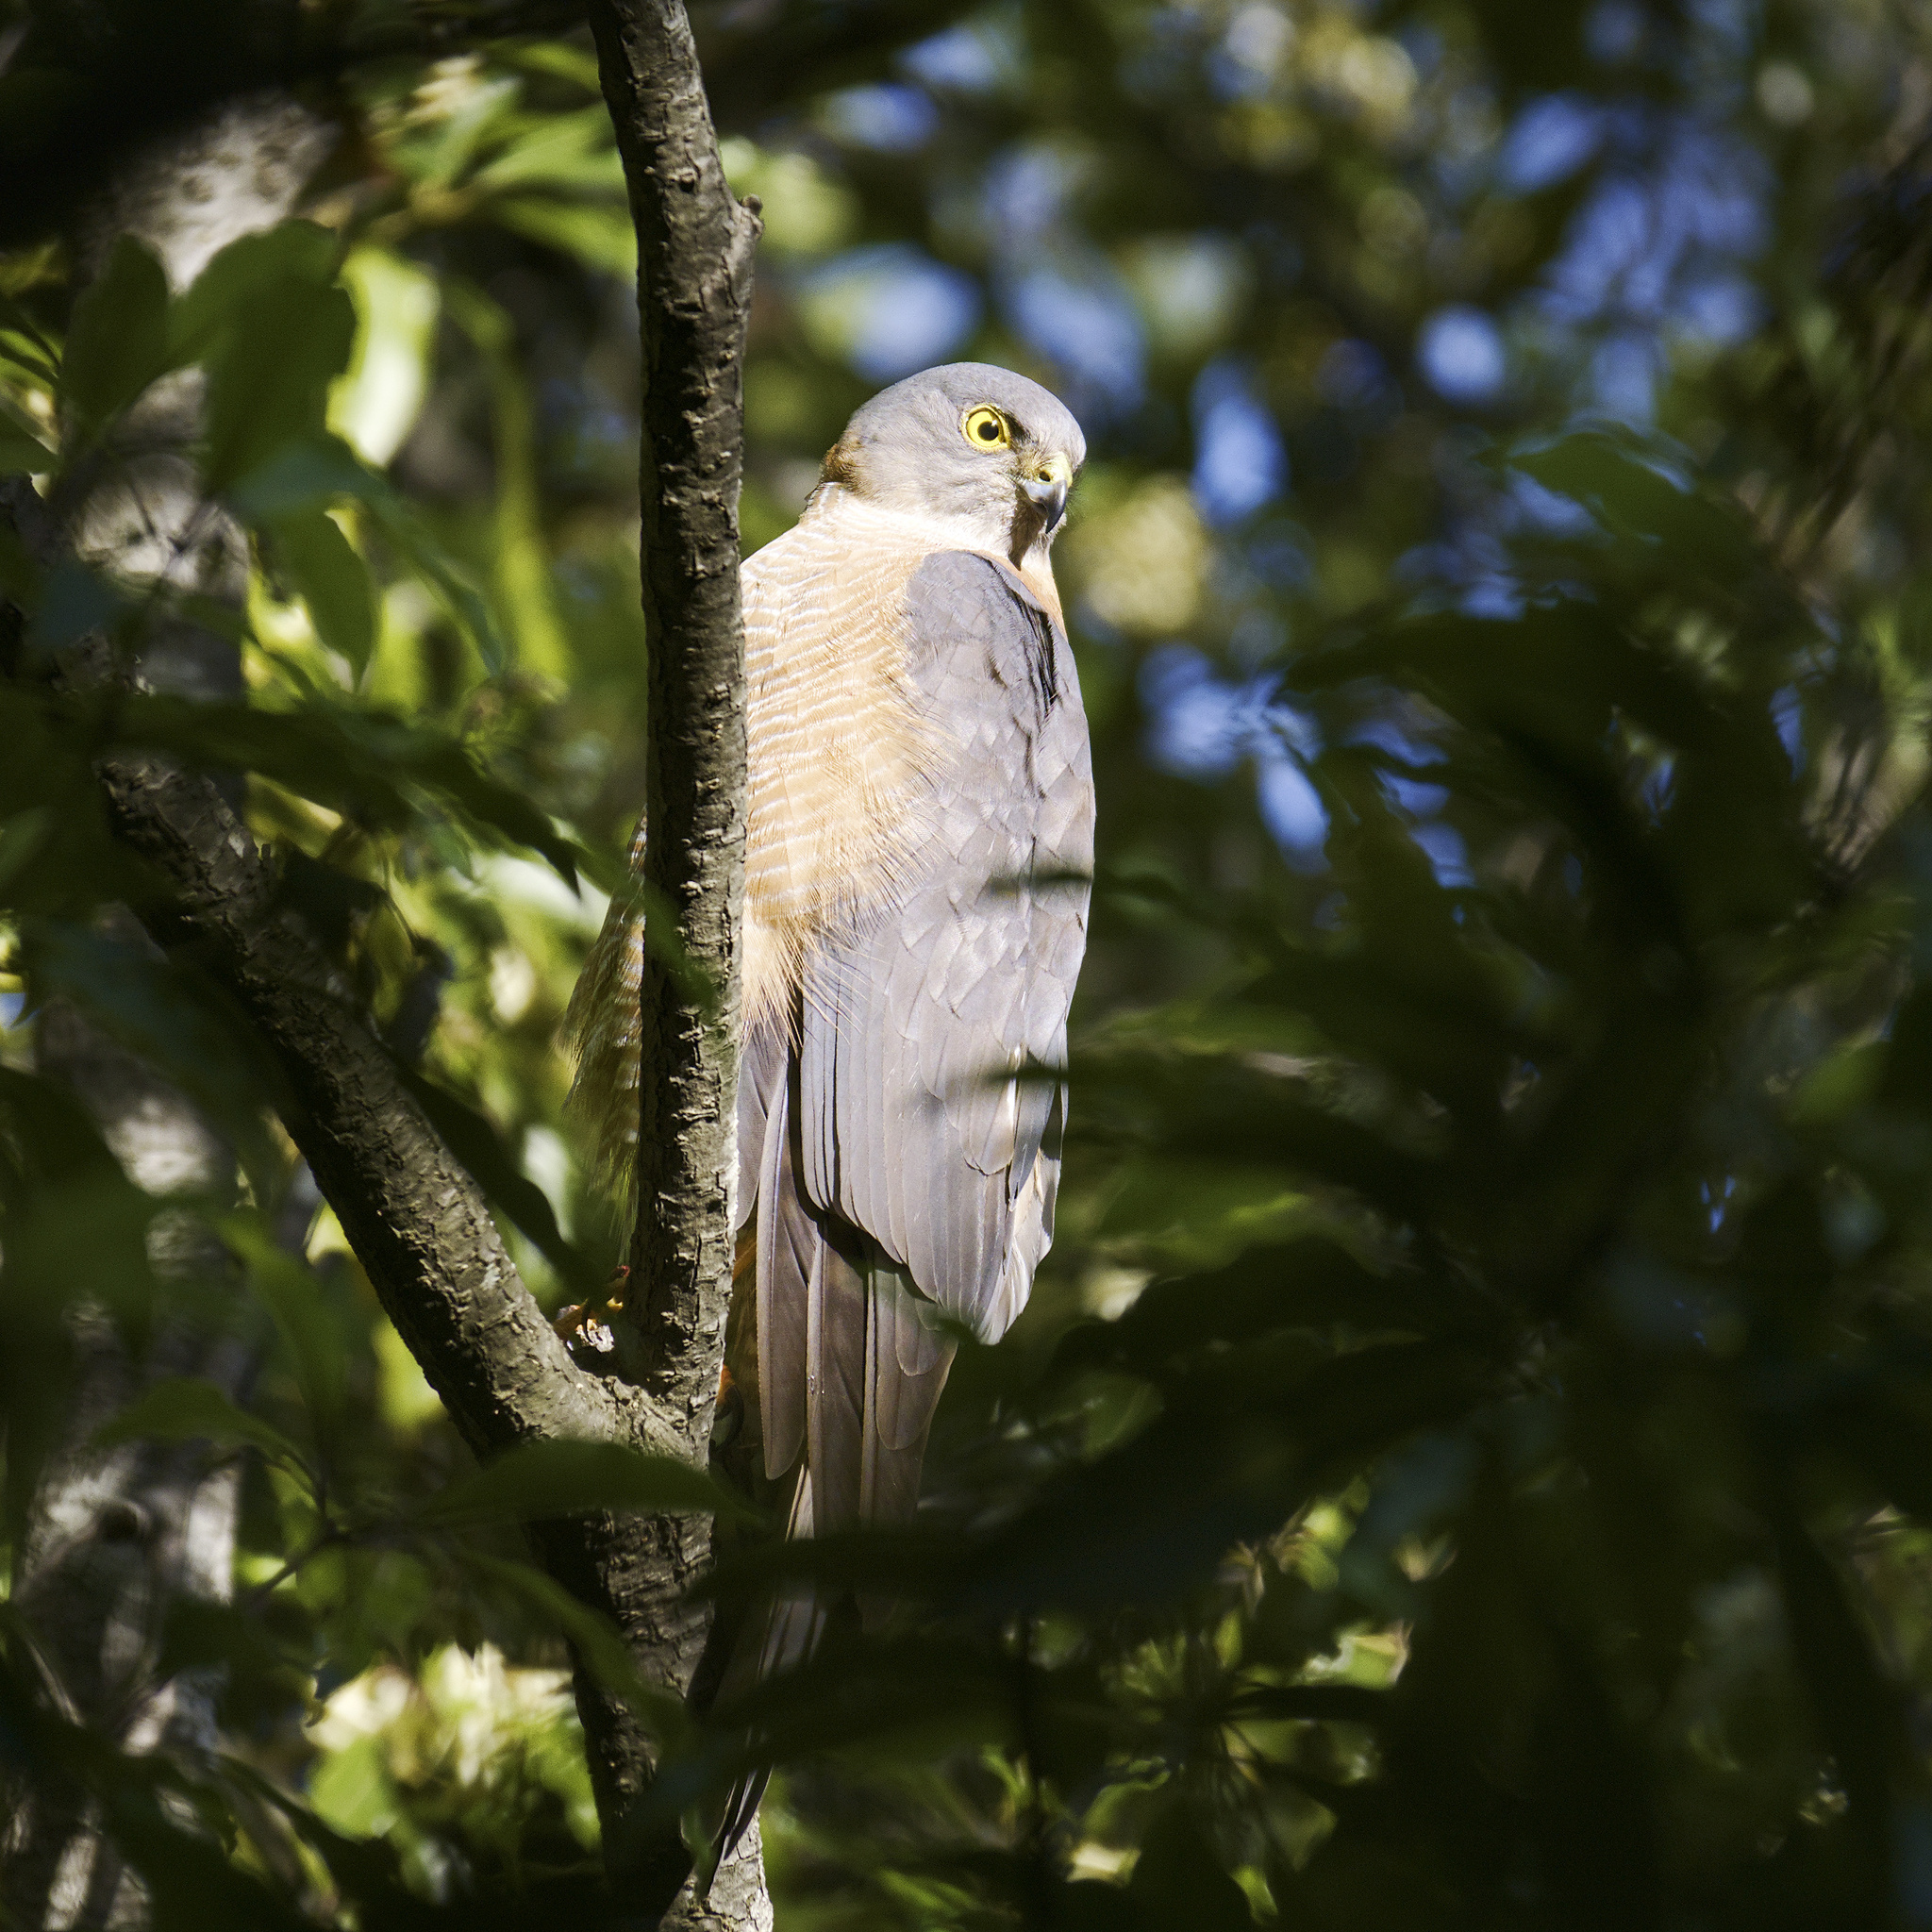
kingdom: Animalia
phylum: Chordata
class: Aves
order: Accipitriformes
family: Accipitridae
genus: Accipiter
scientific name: Accipiter cirrocephalus
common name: Collared sparrowhawk
